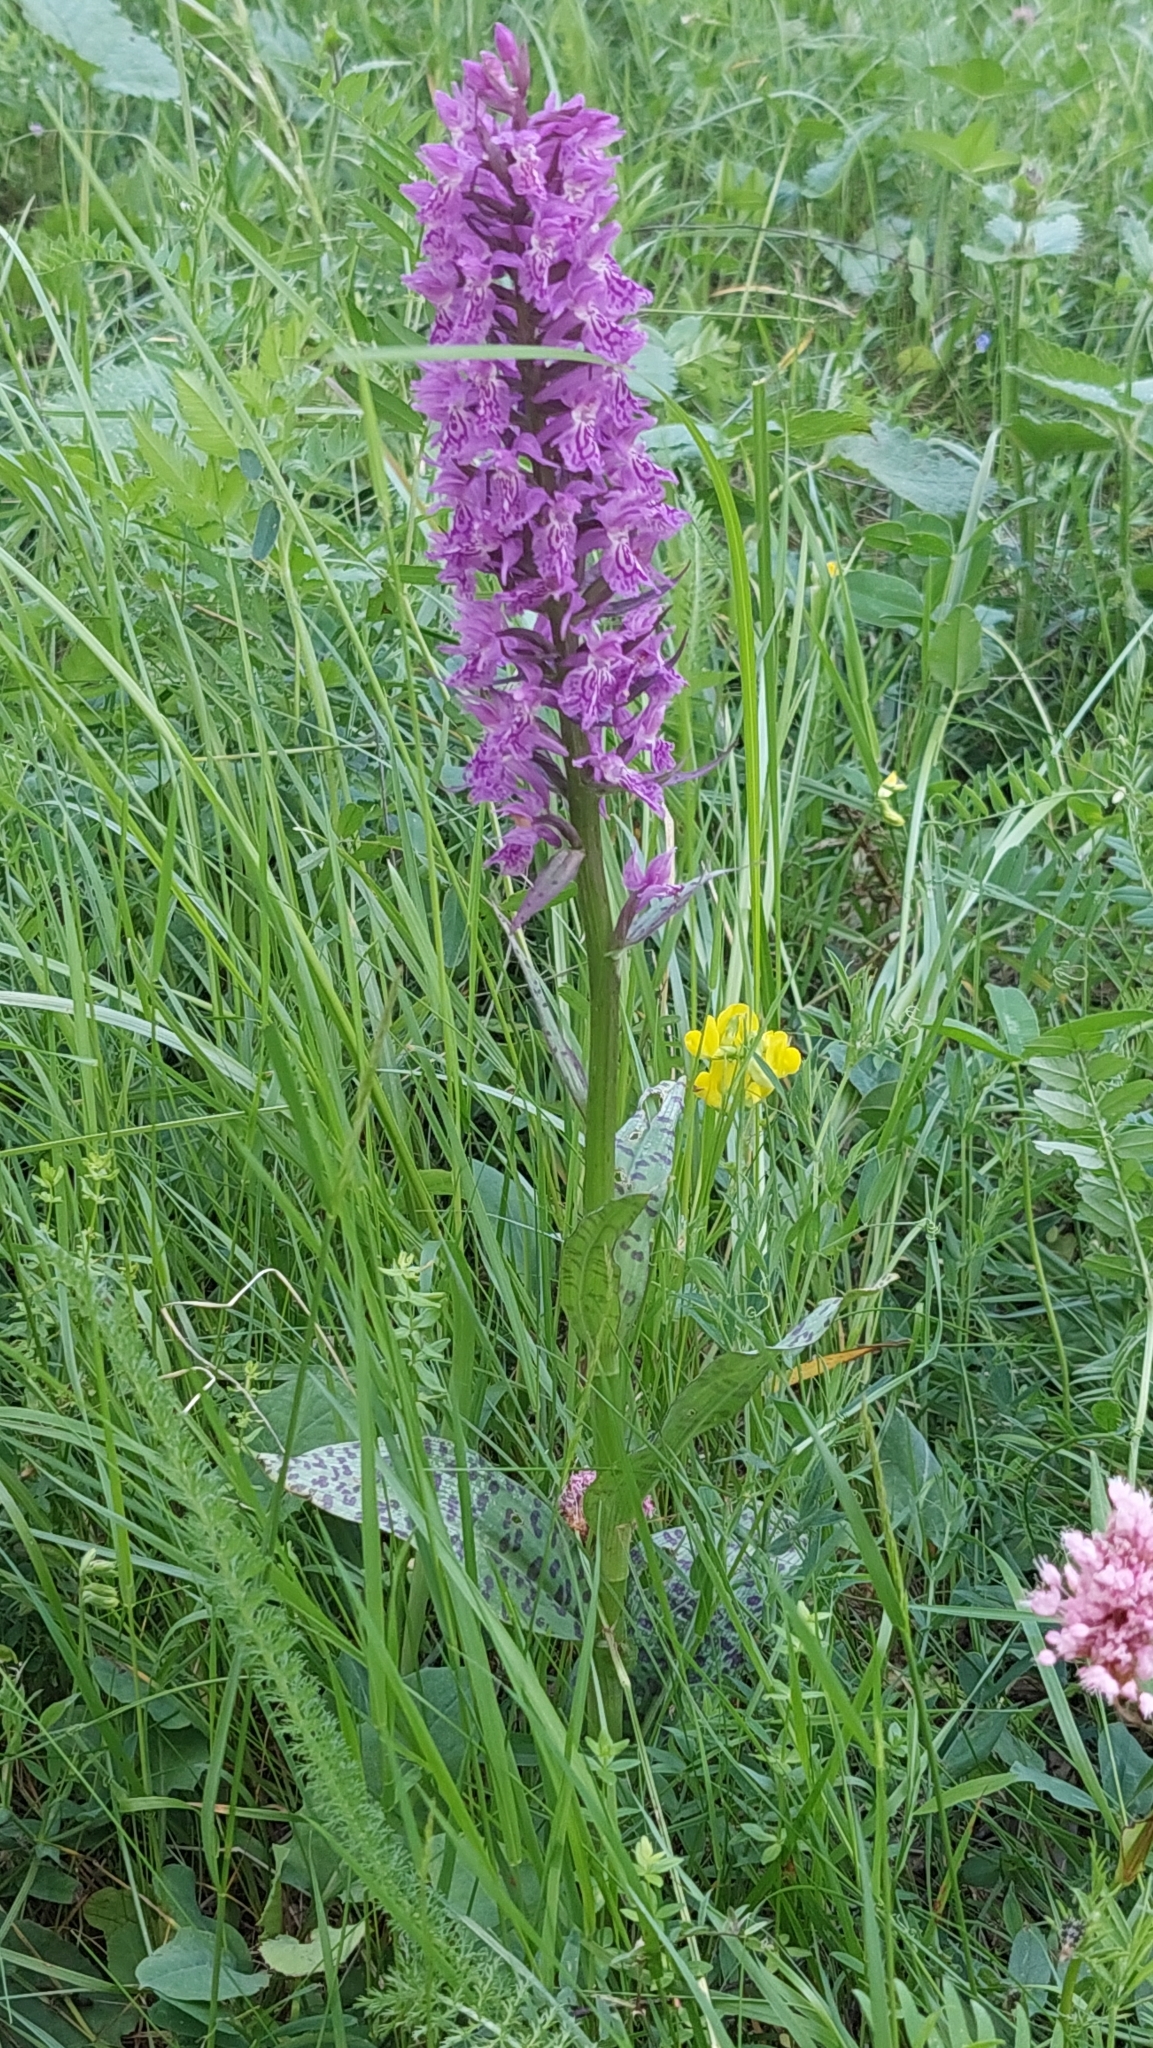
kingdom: Plantae
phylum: Tracheophyta
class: Liliopsida
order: Asparagales
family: Orchidaceae
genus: Dactylorhiza
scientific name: Dactylorhiza urvilleana
